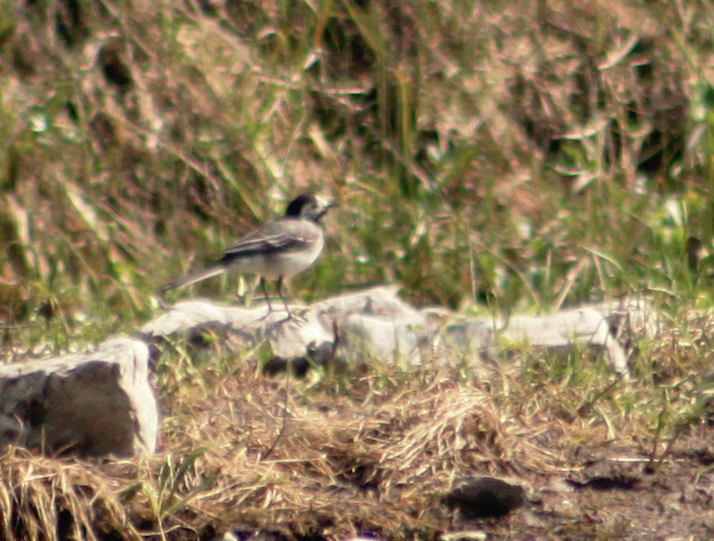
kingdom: Animalia
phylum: Chordata
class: Aves
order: Passeriformes
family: Motacillidae
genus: Motacilla
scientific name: Motacilla alba
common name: White wagtail
